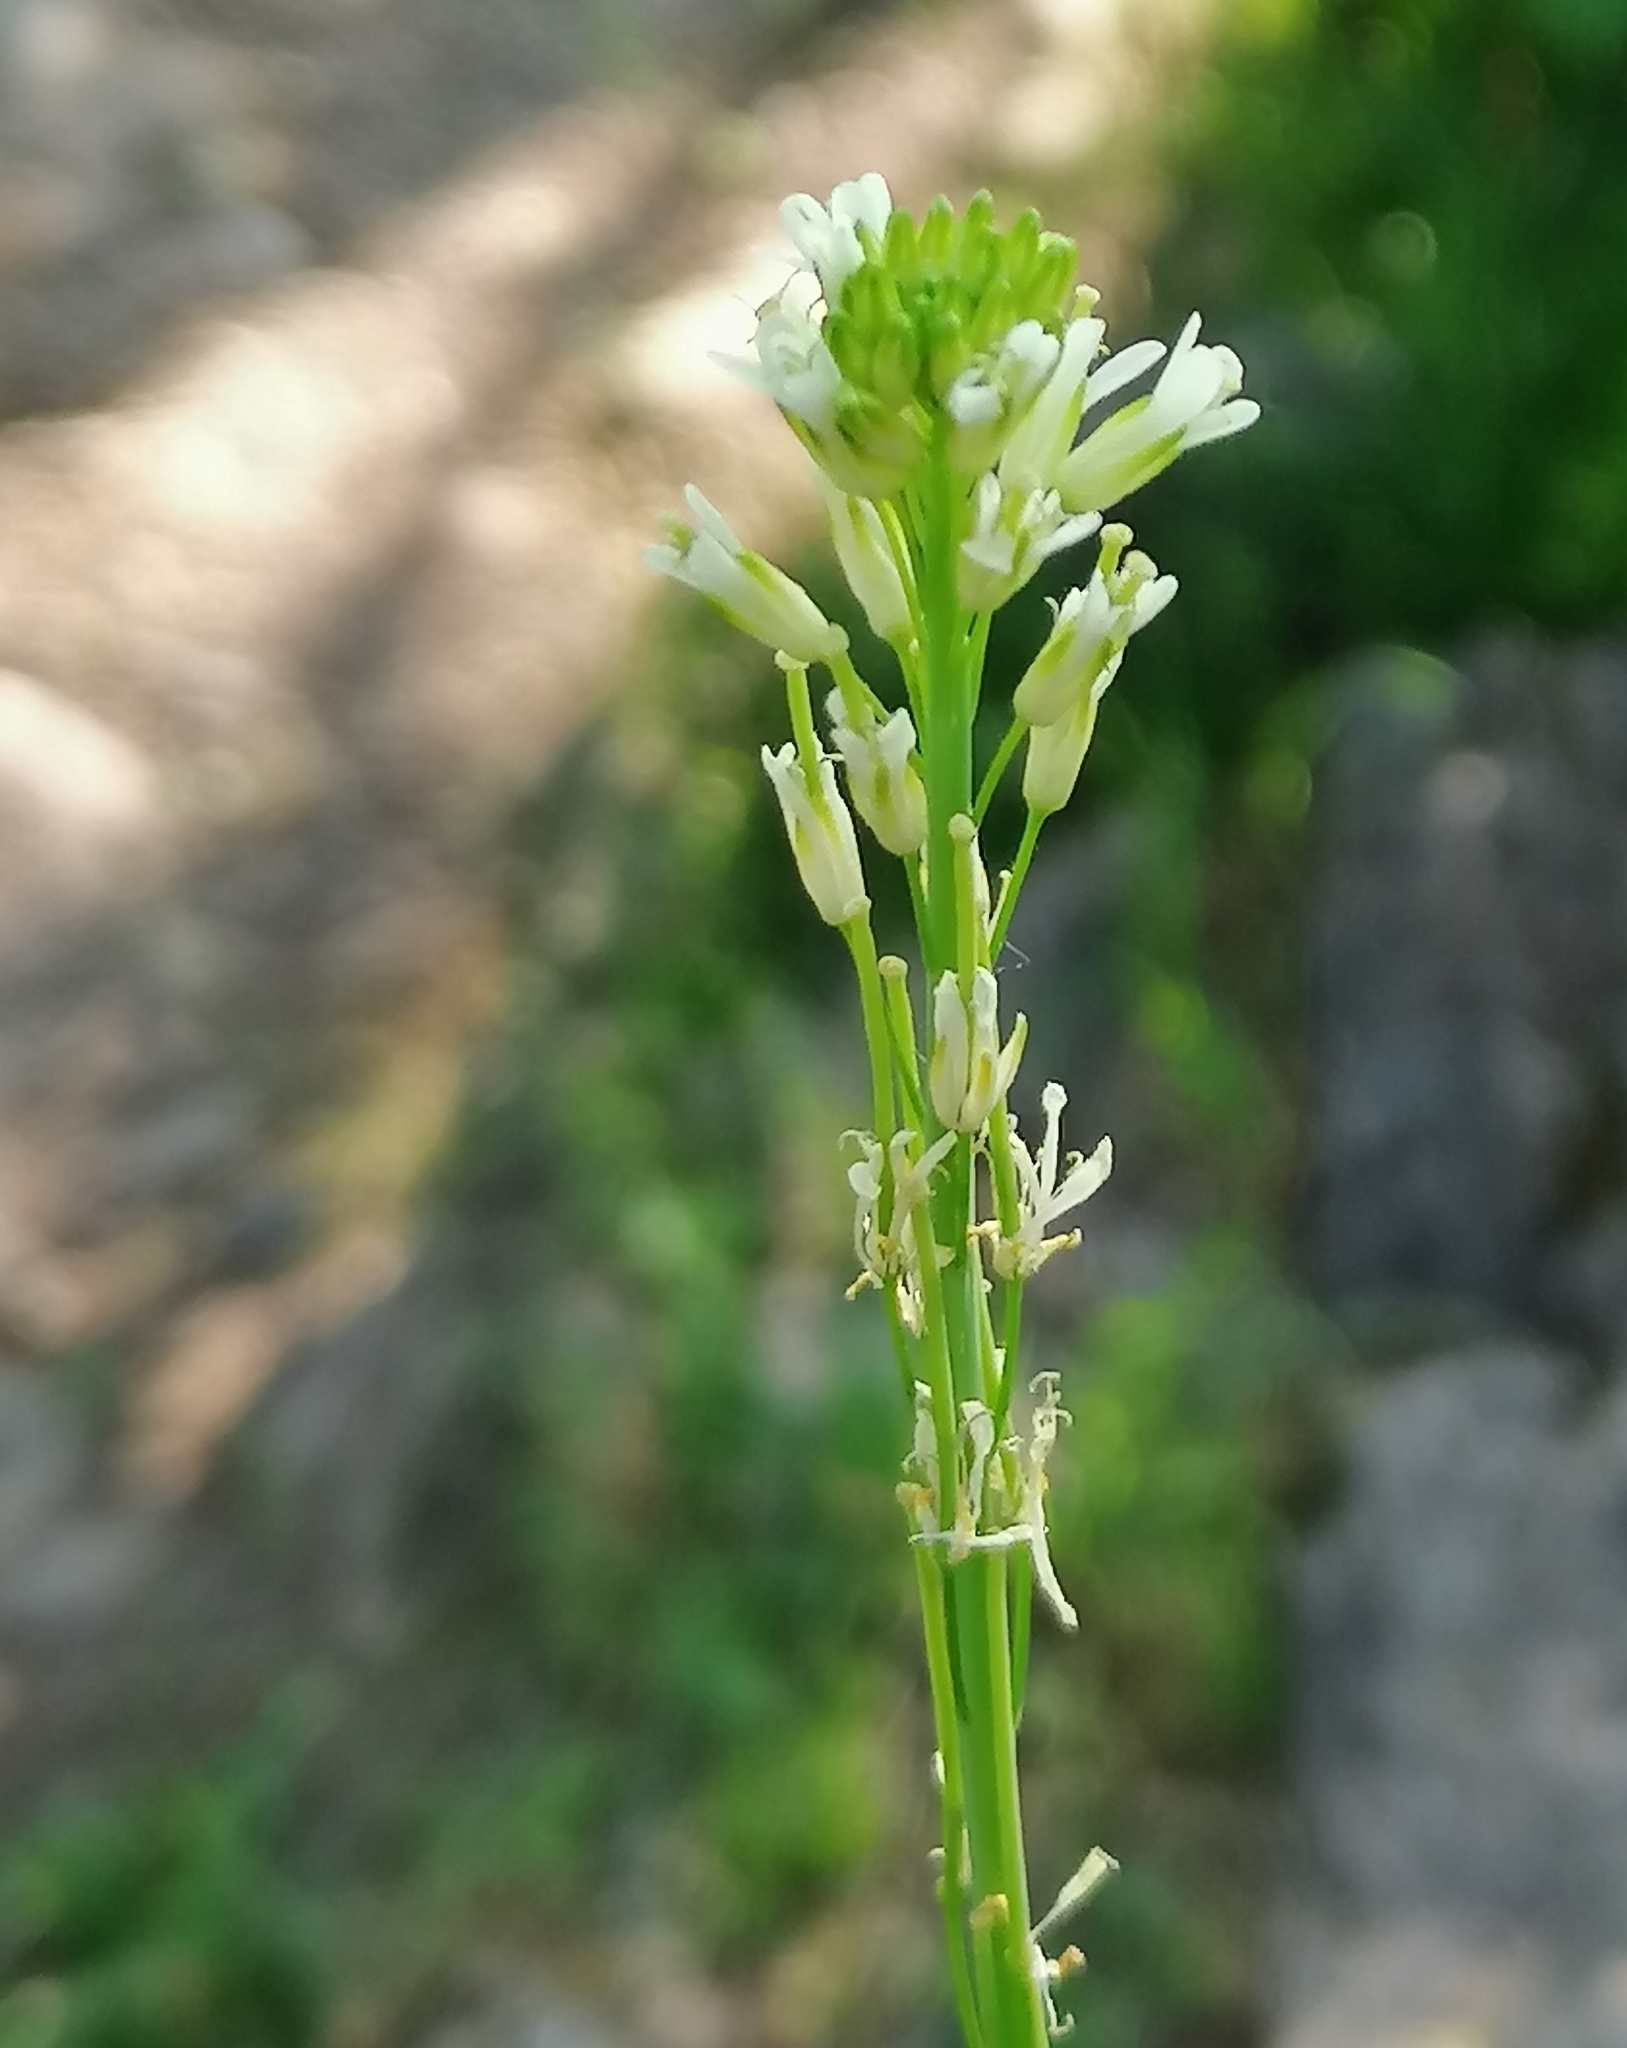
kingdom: Plantae
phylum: Tracheophyta
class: Magnoliopsida
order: Brassicales
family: Brassicaceae
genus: Turritis
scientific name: Turritis glabra
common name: Tower rockcress
